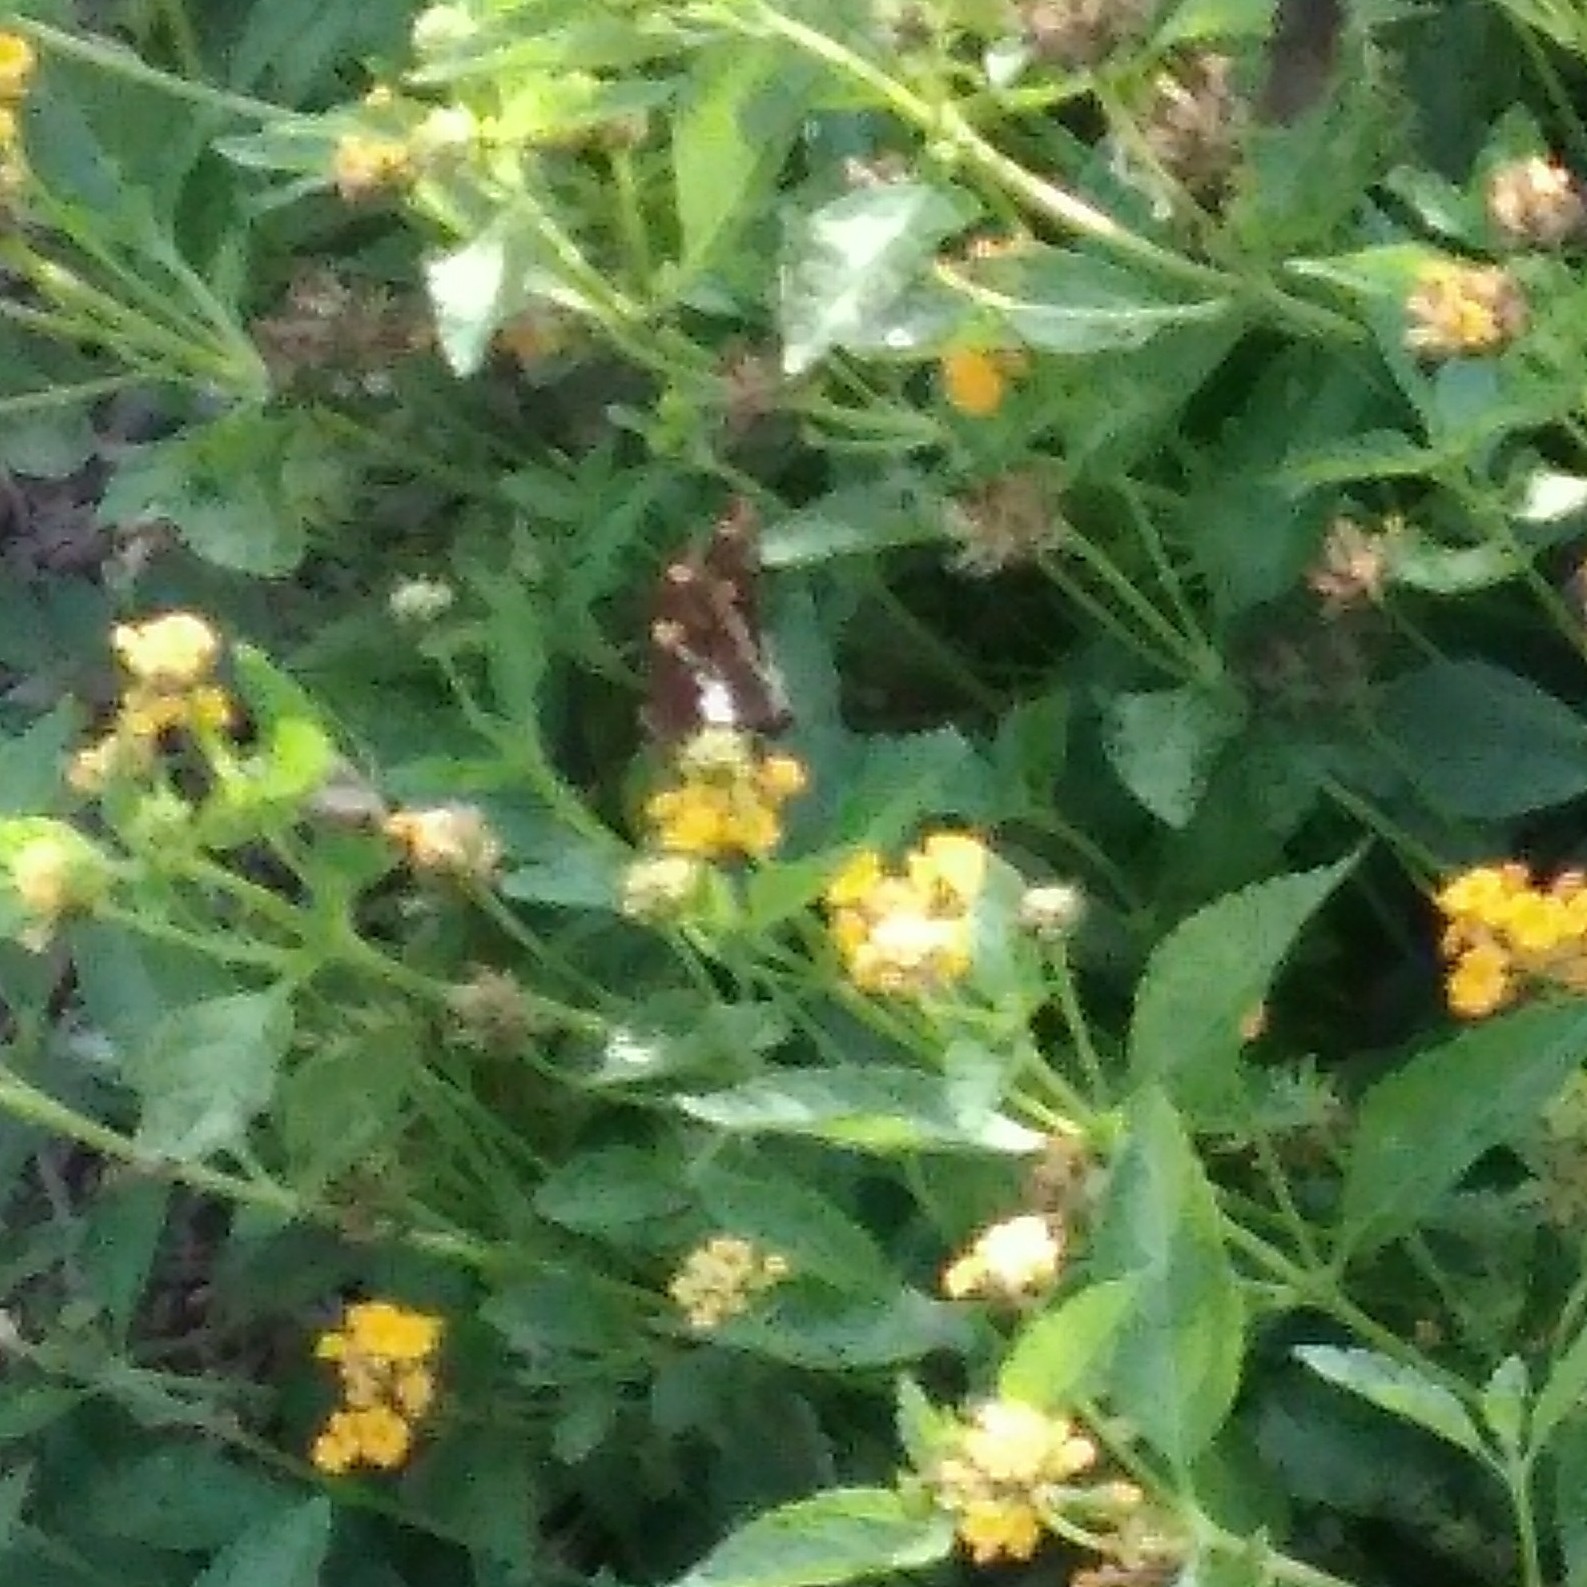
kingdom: Animalia
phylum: Arthropoda
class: Insecta
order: Lepidoptera
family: Hesperiidae
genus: Epargyreus
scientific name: Epargyreus clarus
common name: Silver-spotted skipper
